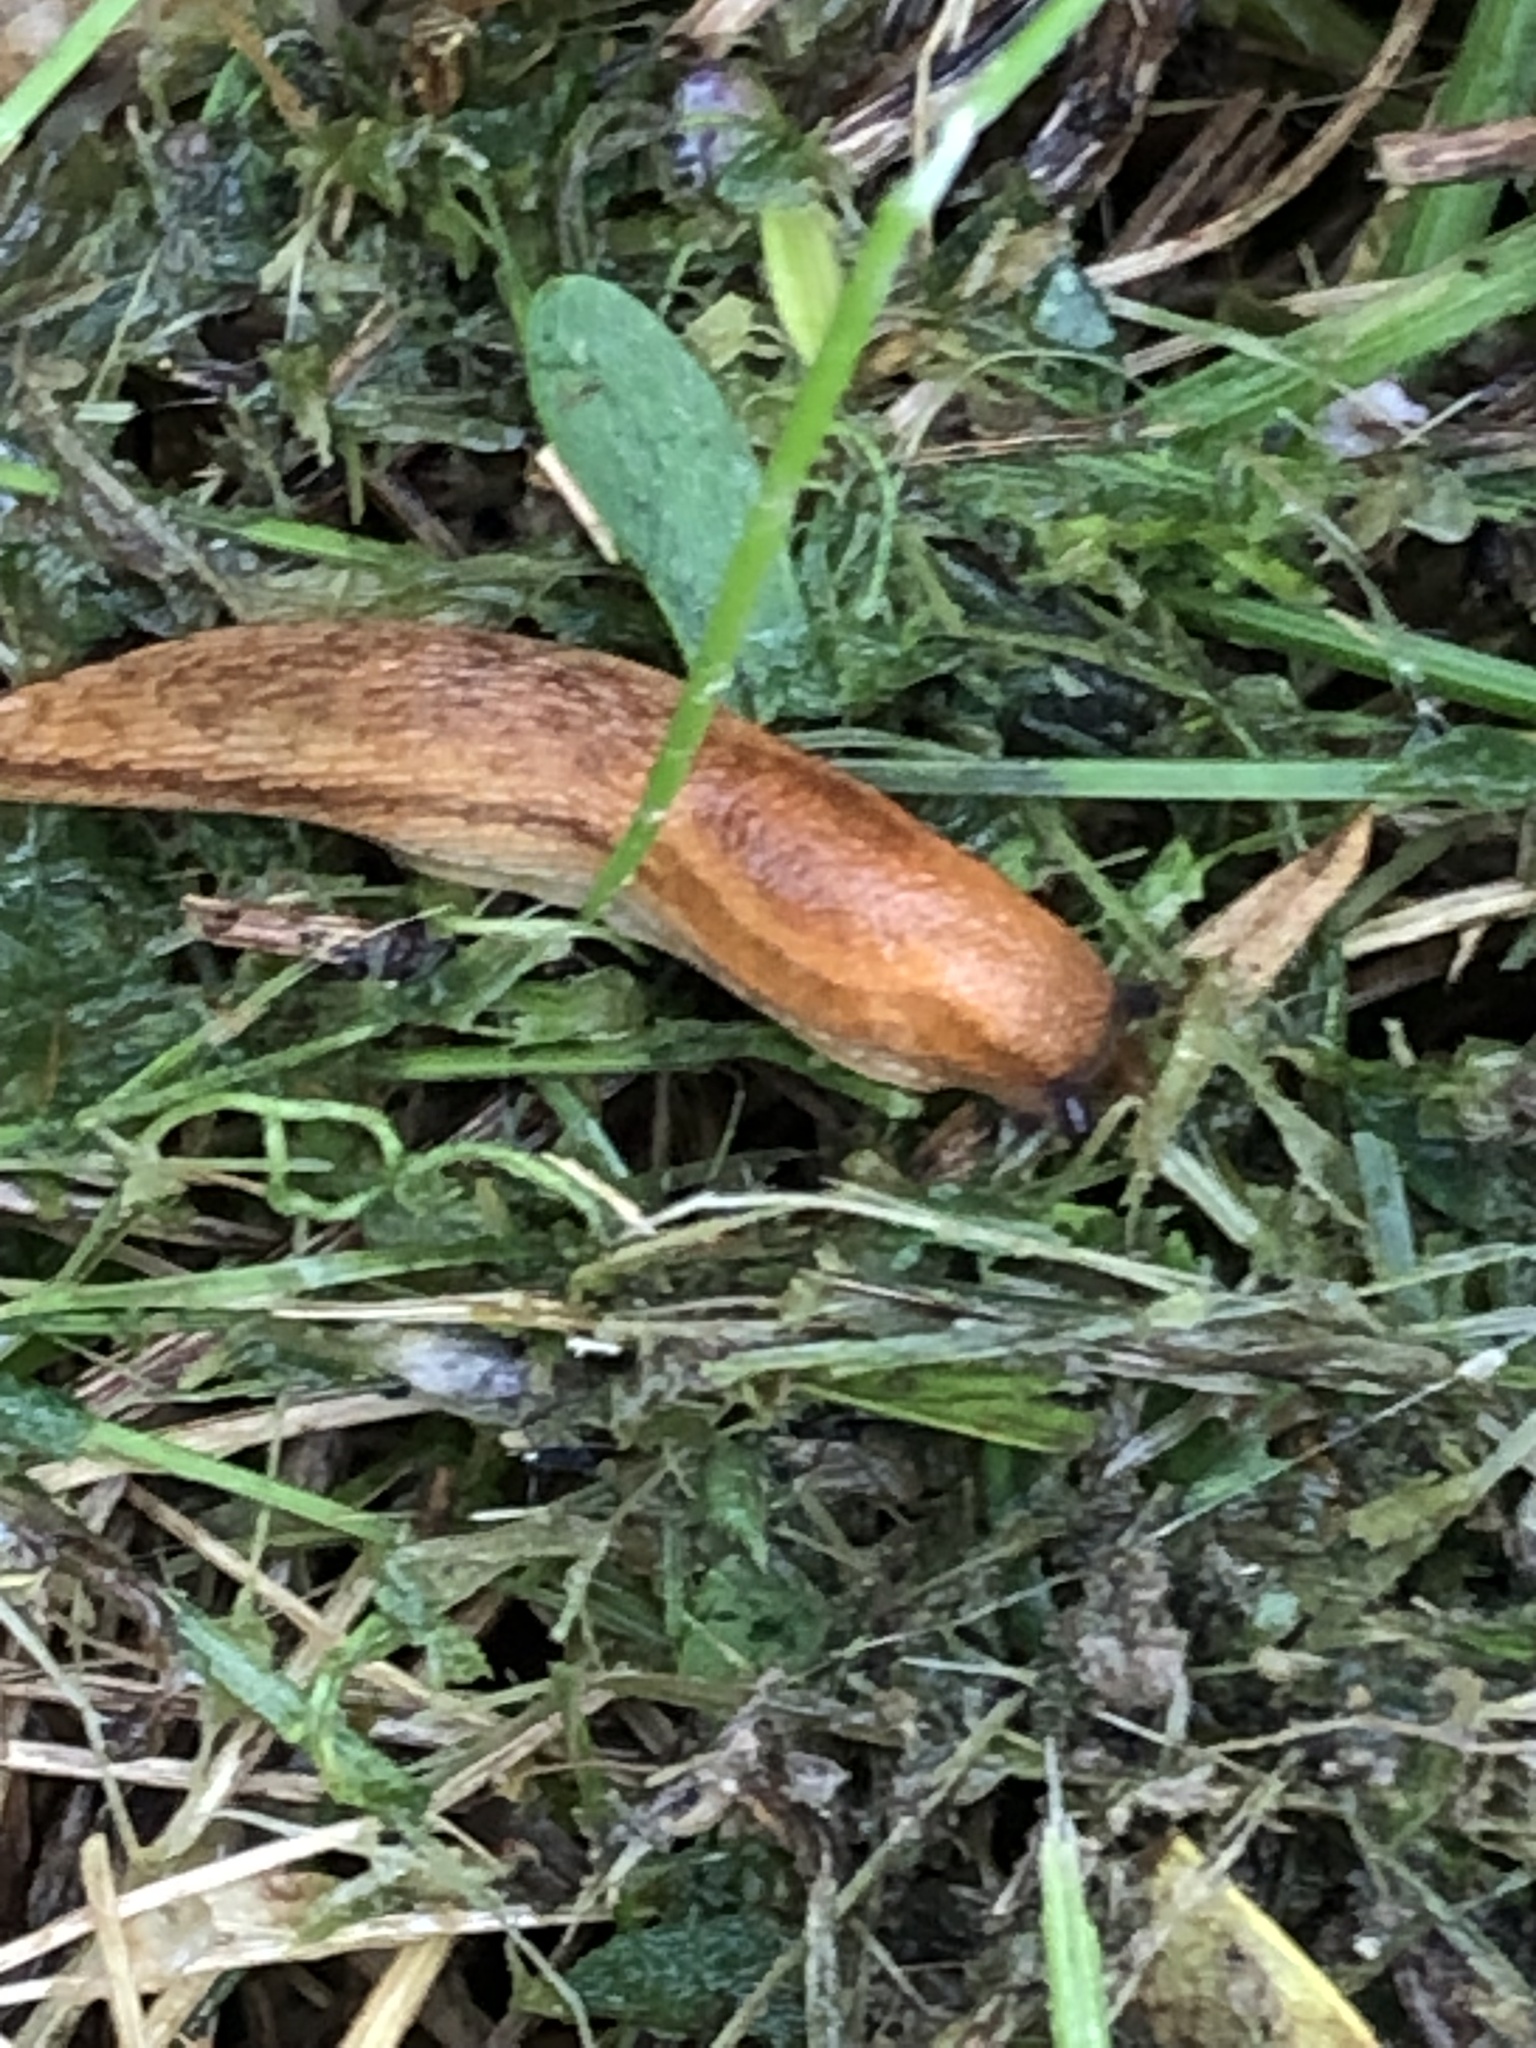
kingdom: Animalia
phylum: Mollusca
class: Gastropoda
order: Stylommatophora
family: Arionidae
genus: Arion
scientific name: Arion subfuscus
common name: Dusky arion
